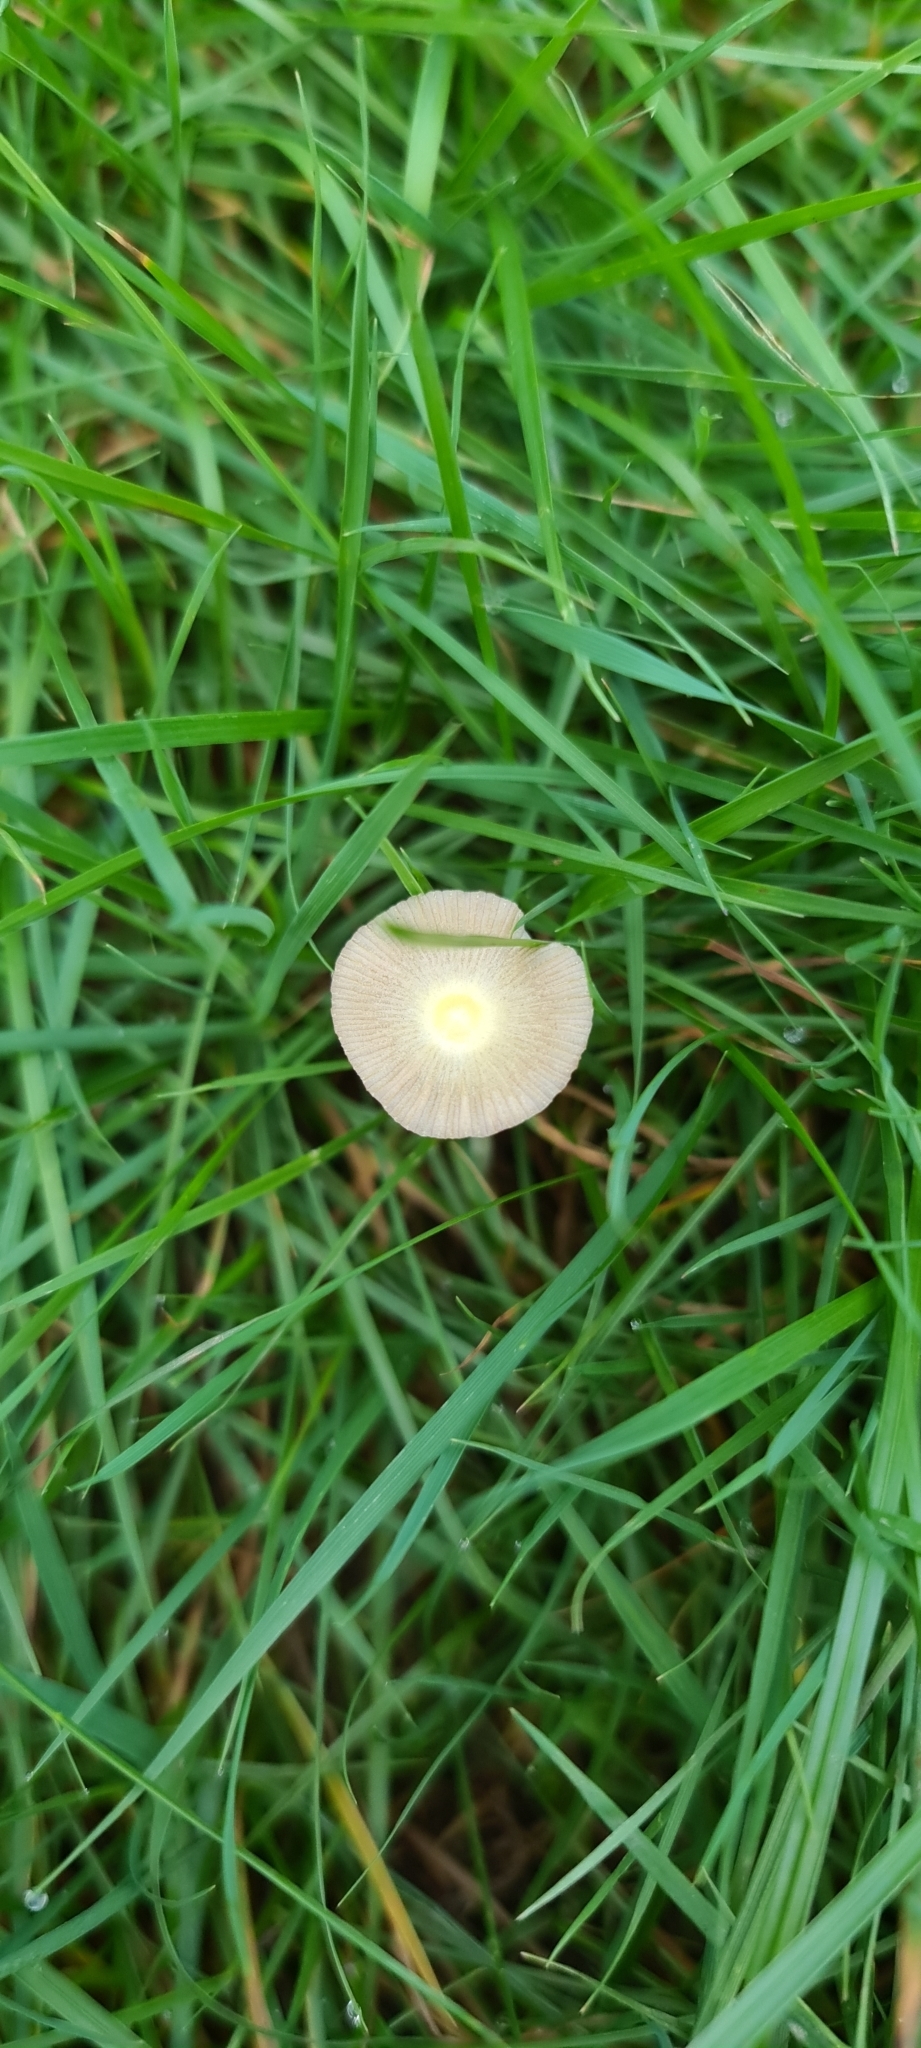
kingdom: Fungi
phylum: Basidiomycota
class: Agaricomycetes
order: Agaricales
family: Bolbitiaceae
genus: Bolbitius
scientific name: Bolbitius titubans
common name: Yellow fieldcap
